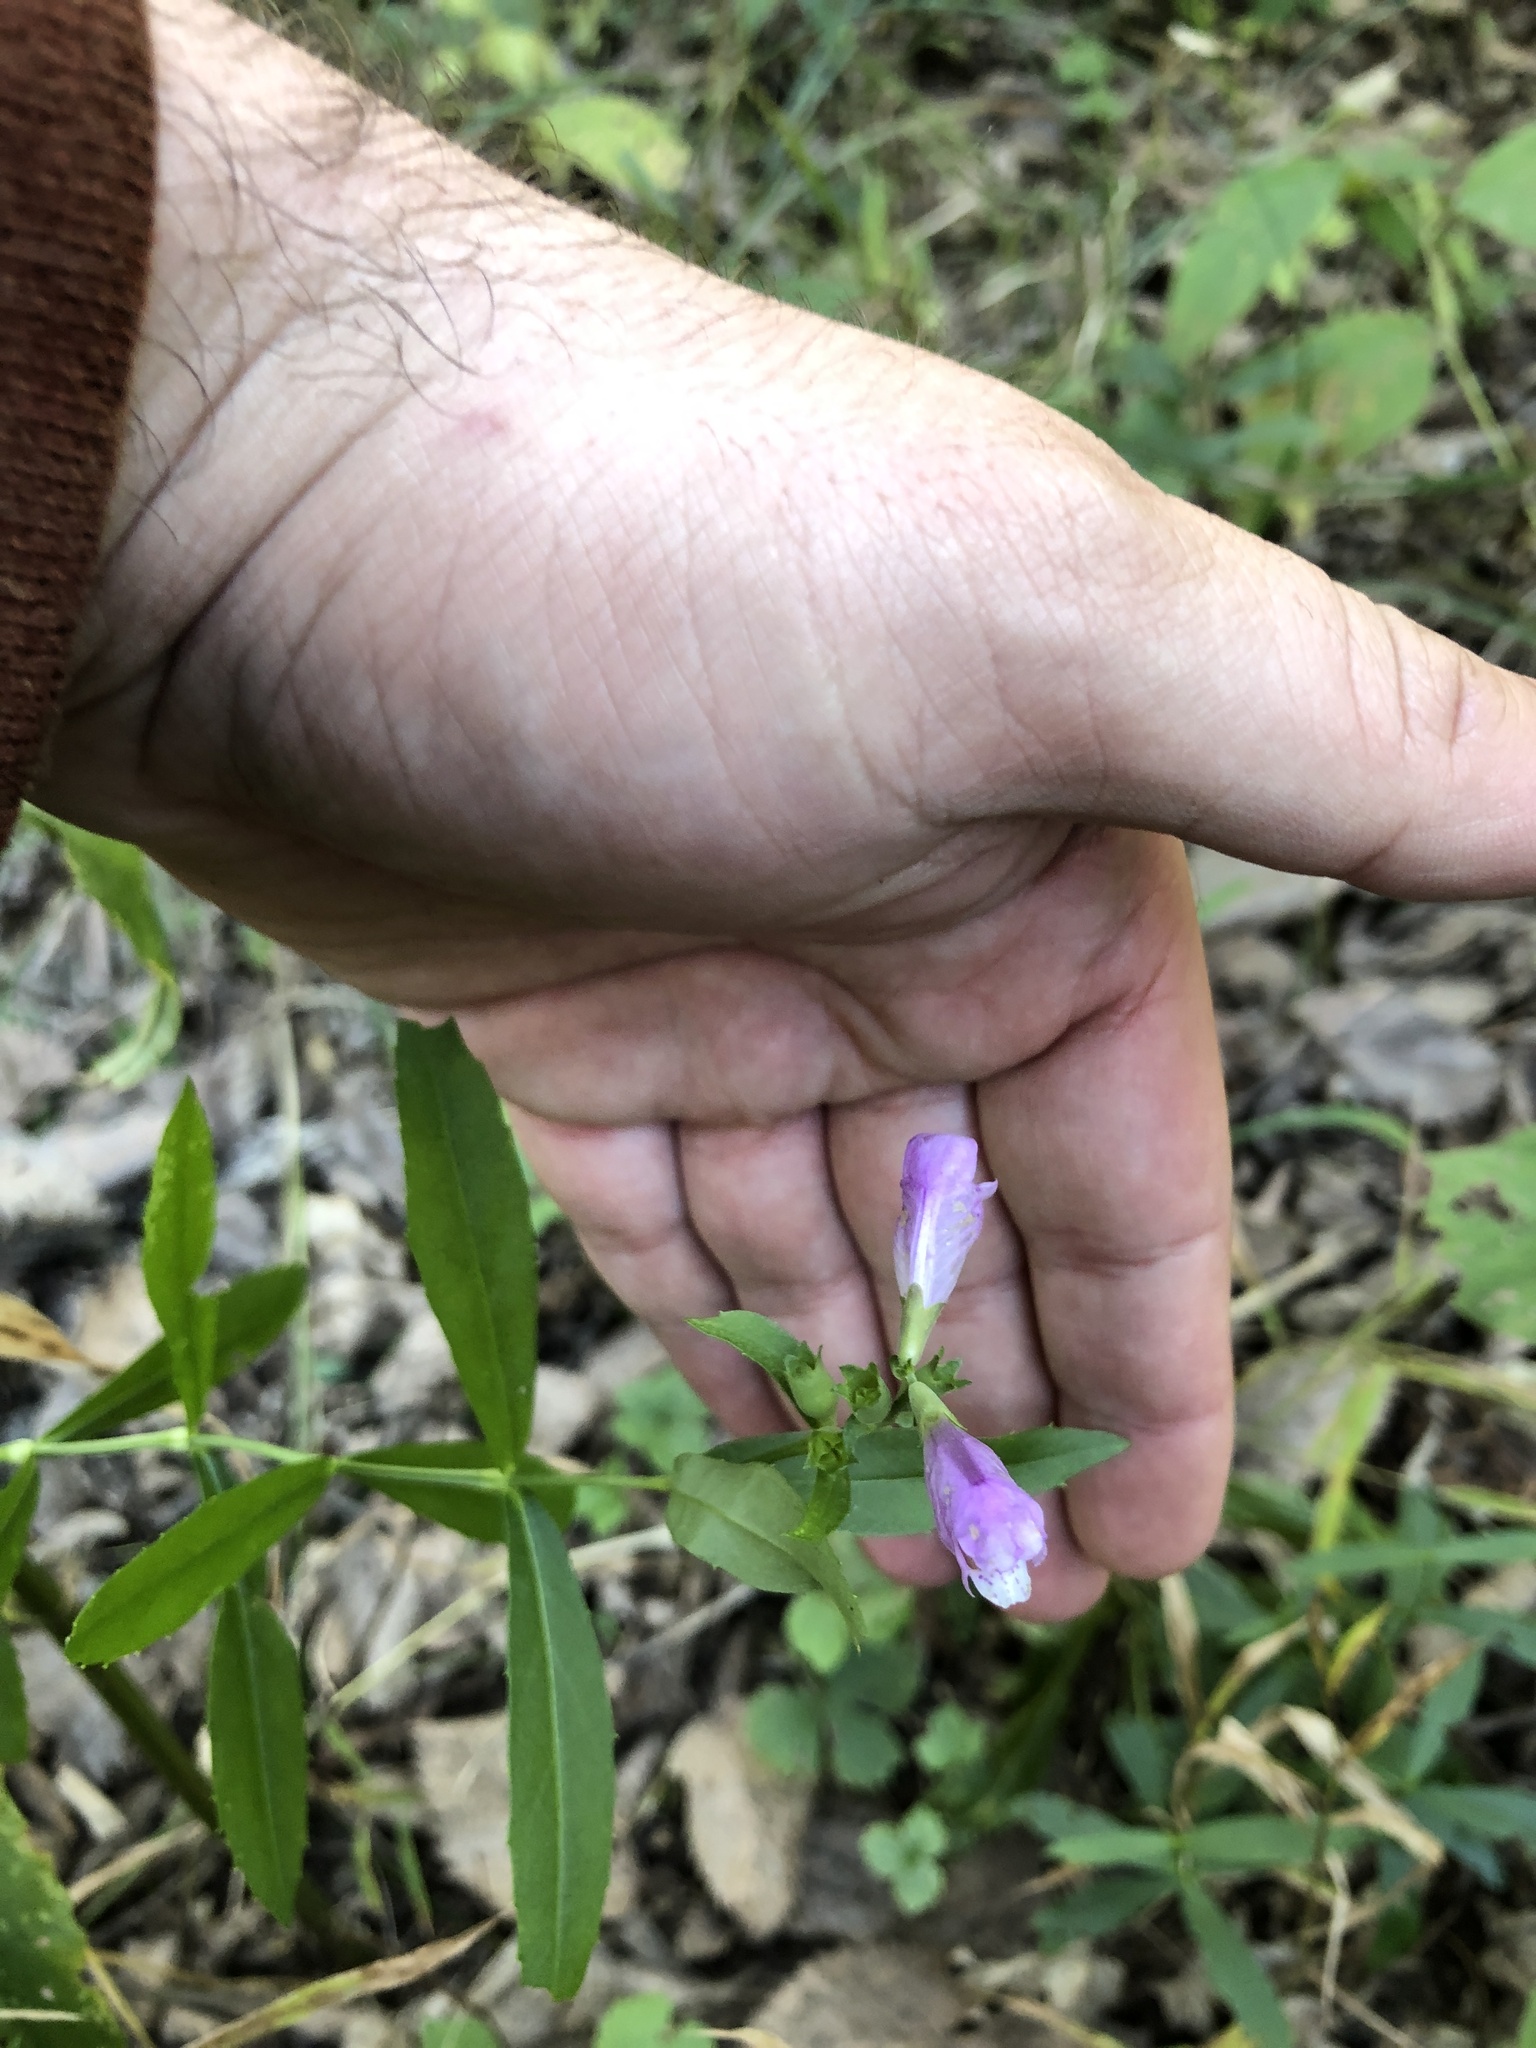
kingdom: Plantae
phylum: Tracheophyta
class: Magnoliopsida
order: Lamiales
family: Lamiaceae
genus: Physostegia
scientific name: Physostegia virginiana
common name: Obedient-plant
